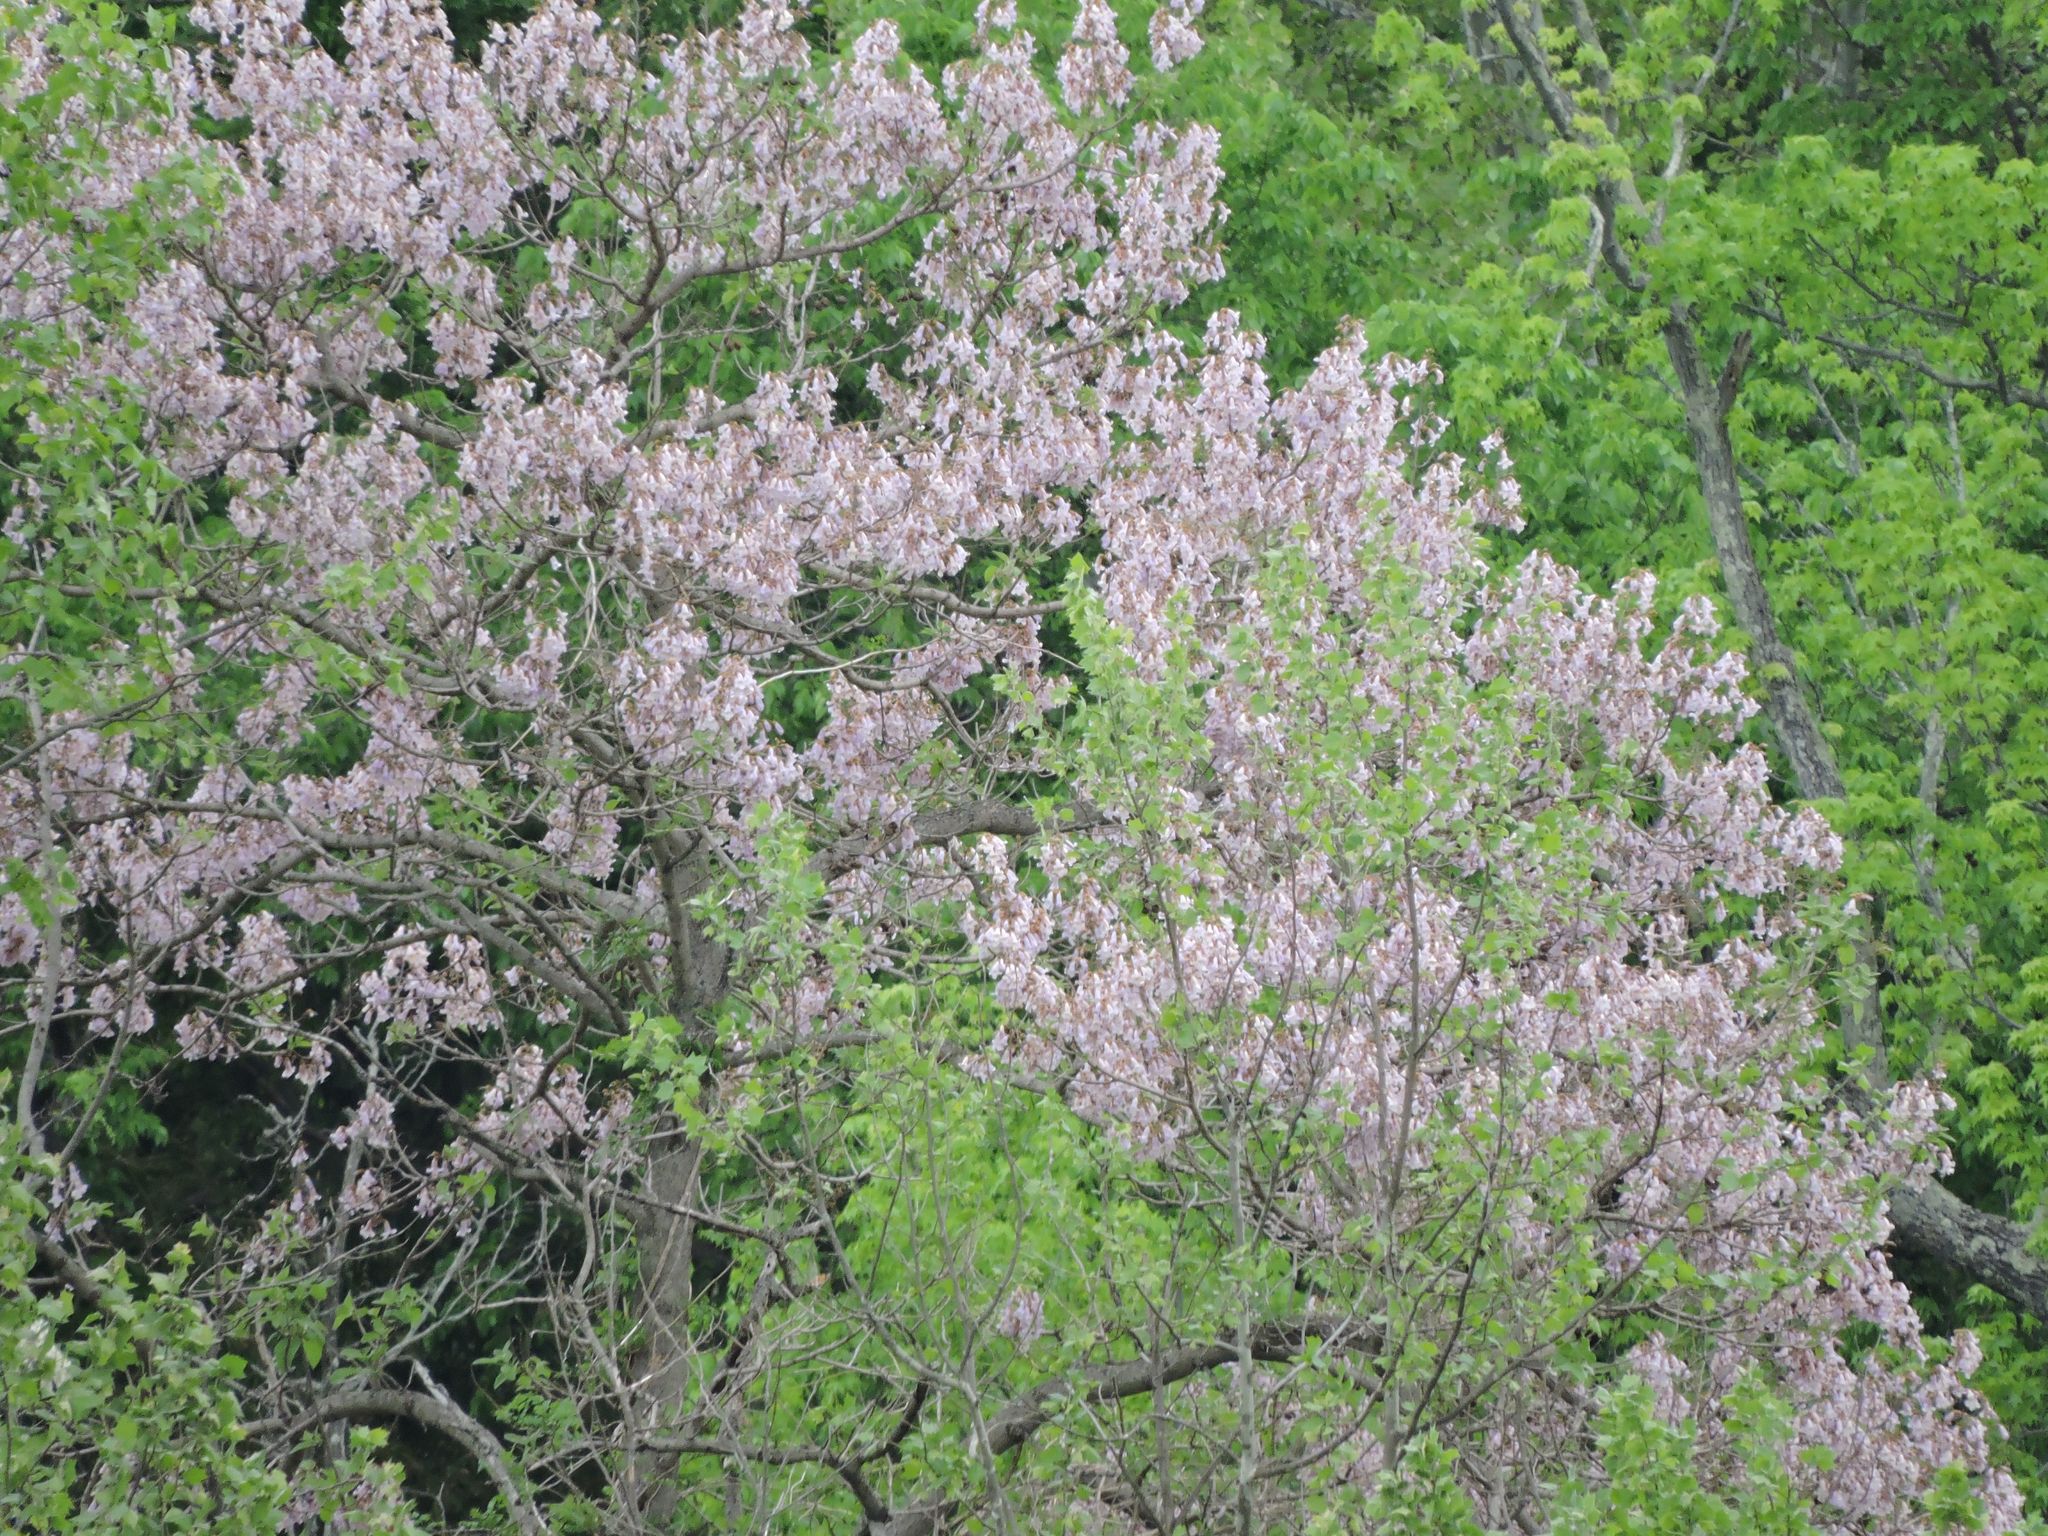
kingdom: Plantae
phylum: Tracheophyta
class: Magnoliopsida
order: Lamiales
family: Paulowniaceae
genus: Paulownia
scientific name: Paulownia tomentosa
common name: Foxglove-tree
